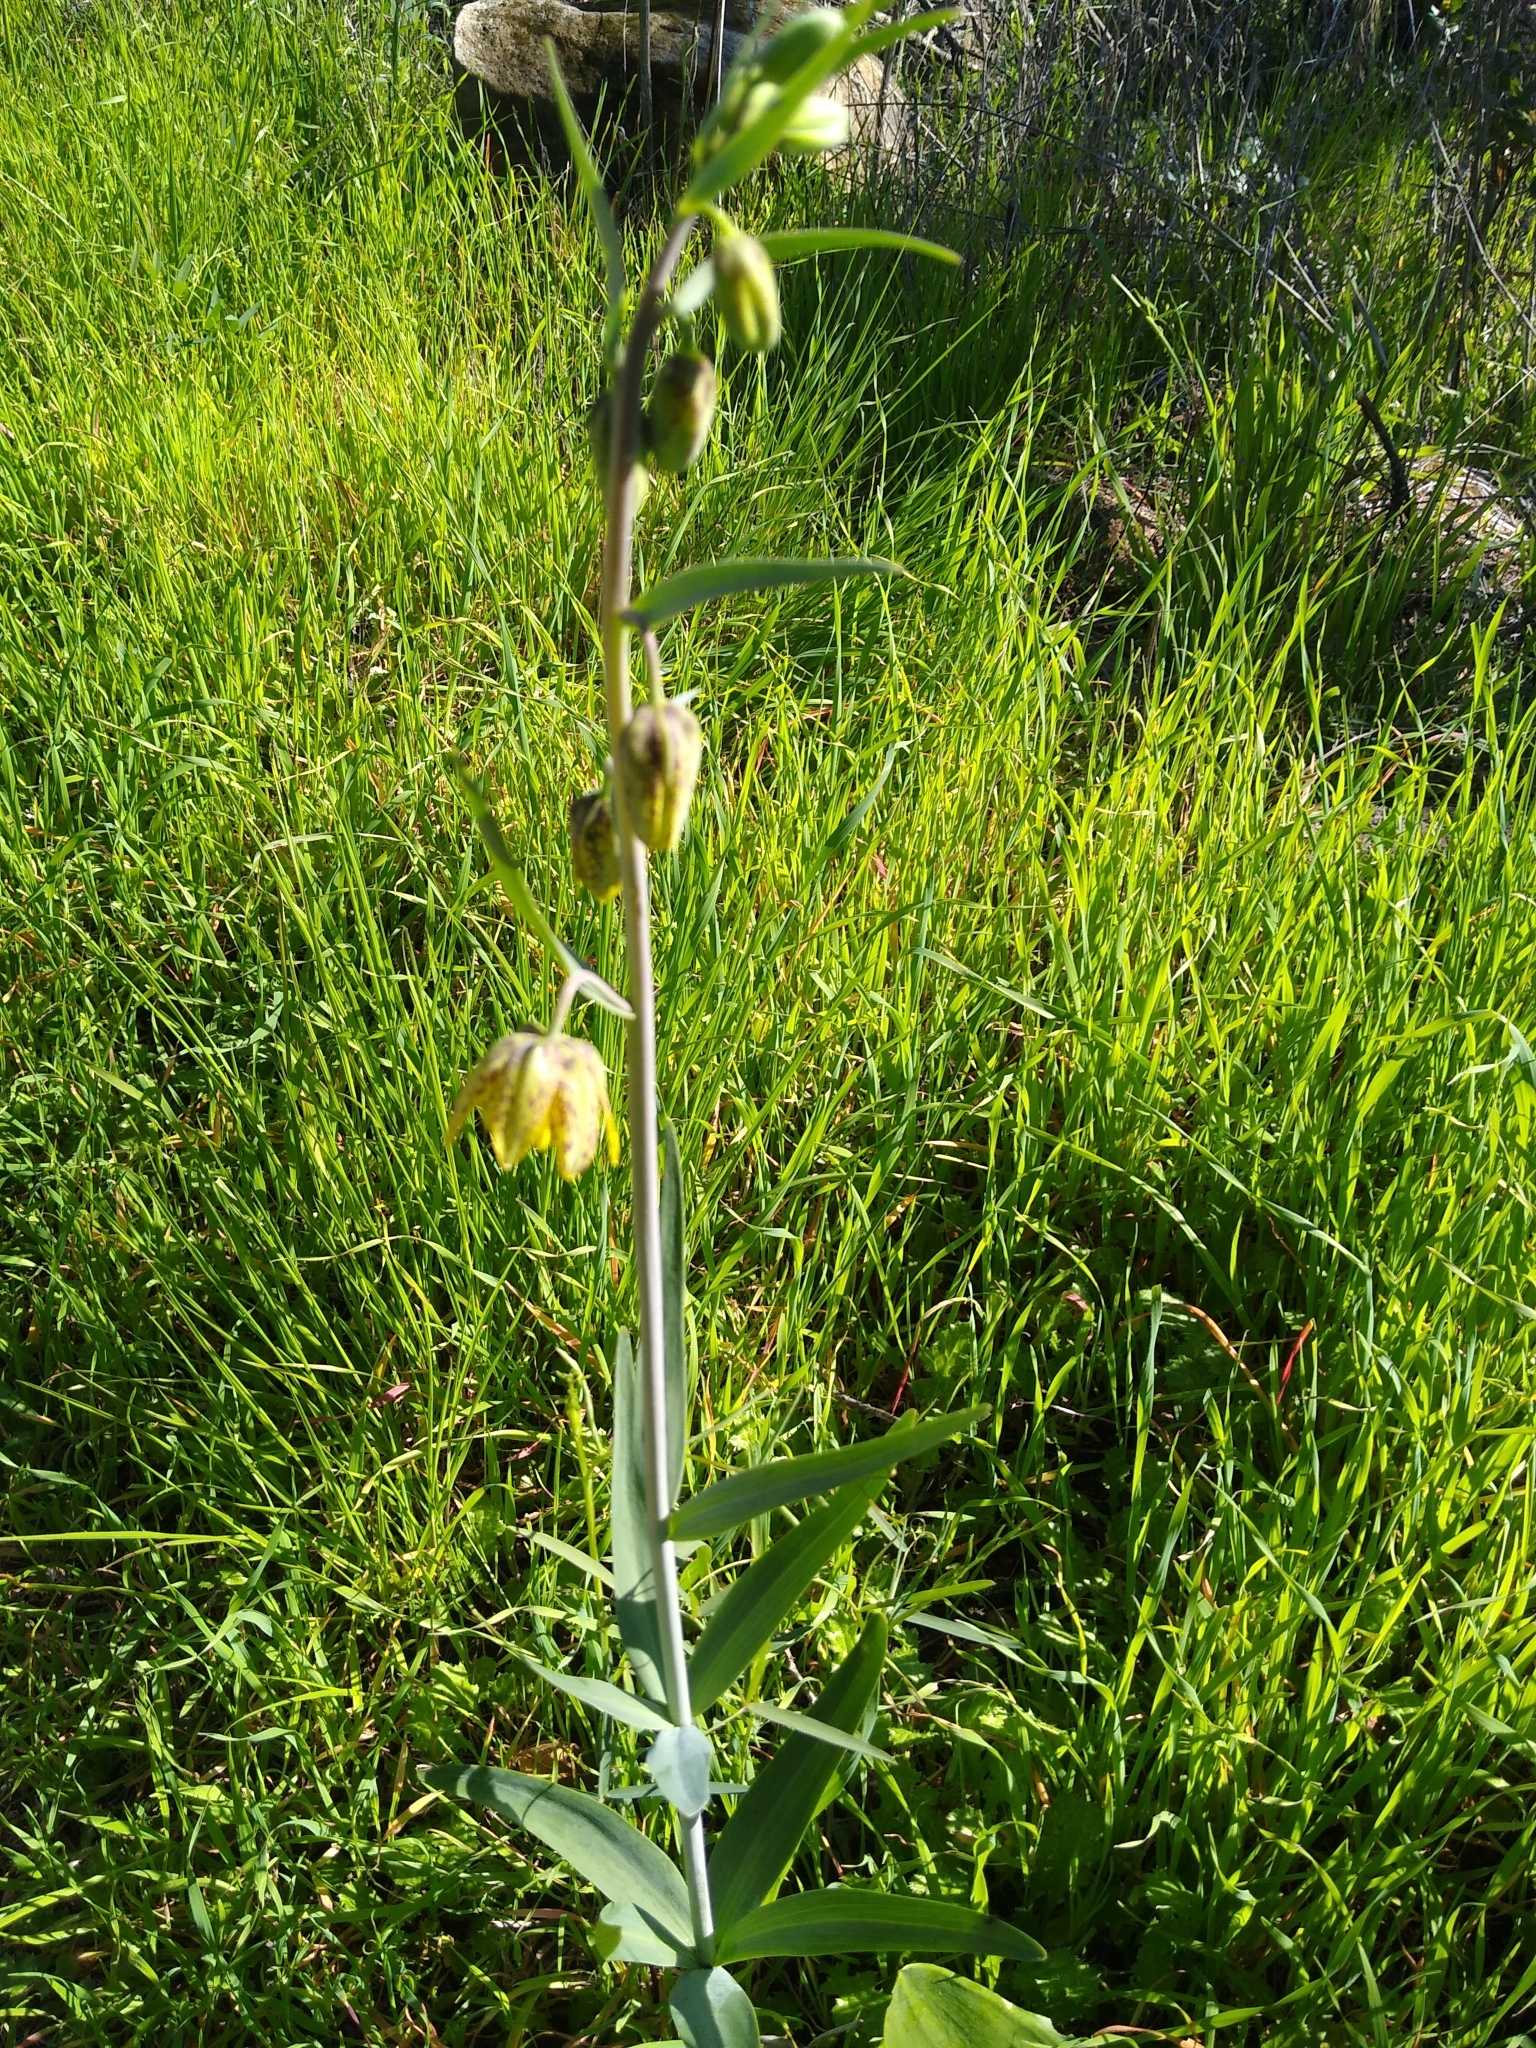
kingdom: Plantae
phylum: Tracheophyta
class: Liliopsida
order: Liliales
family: Liliaceae
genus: Fritillaria
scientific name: Fritillaria affinis
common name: Ojai fritillary
